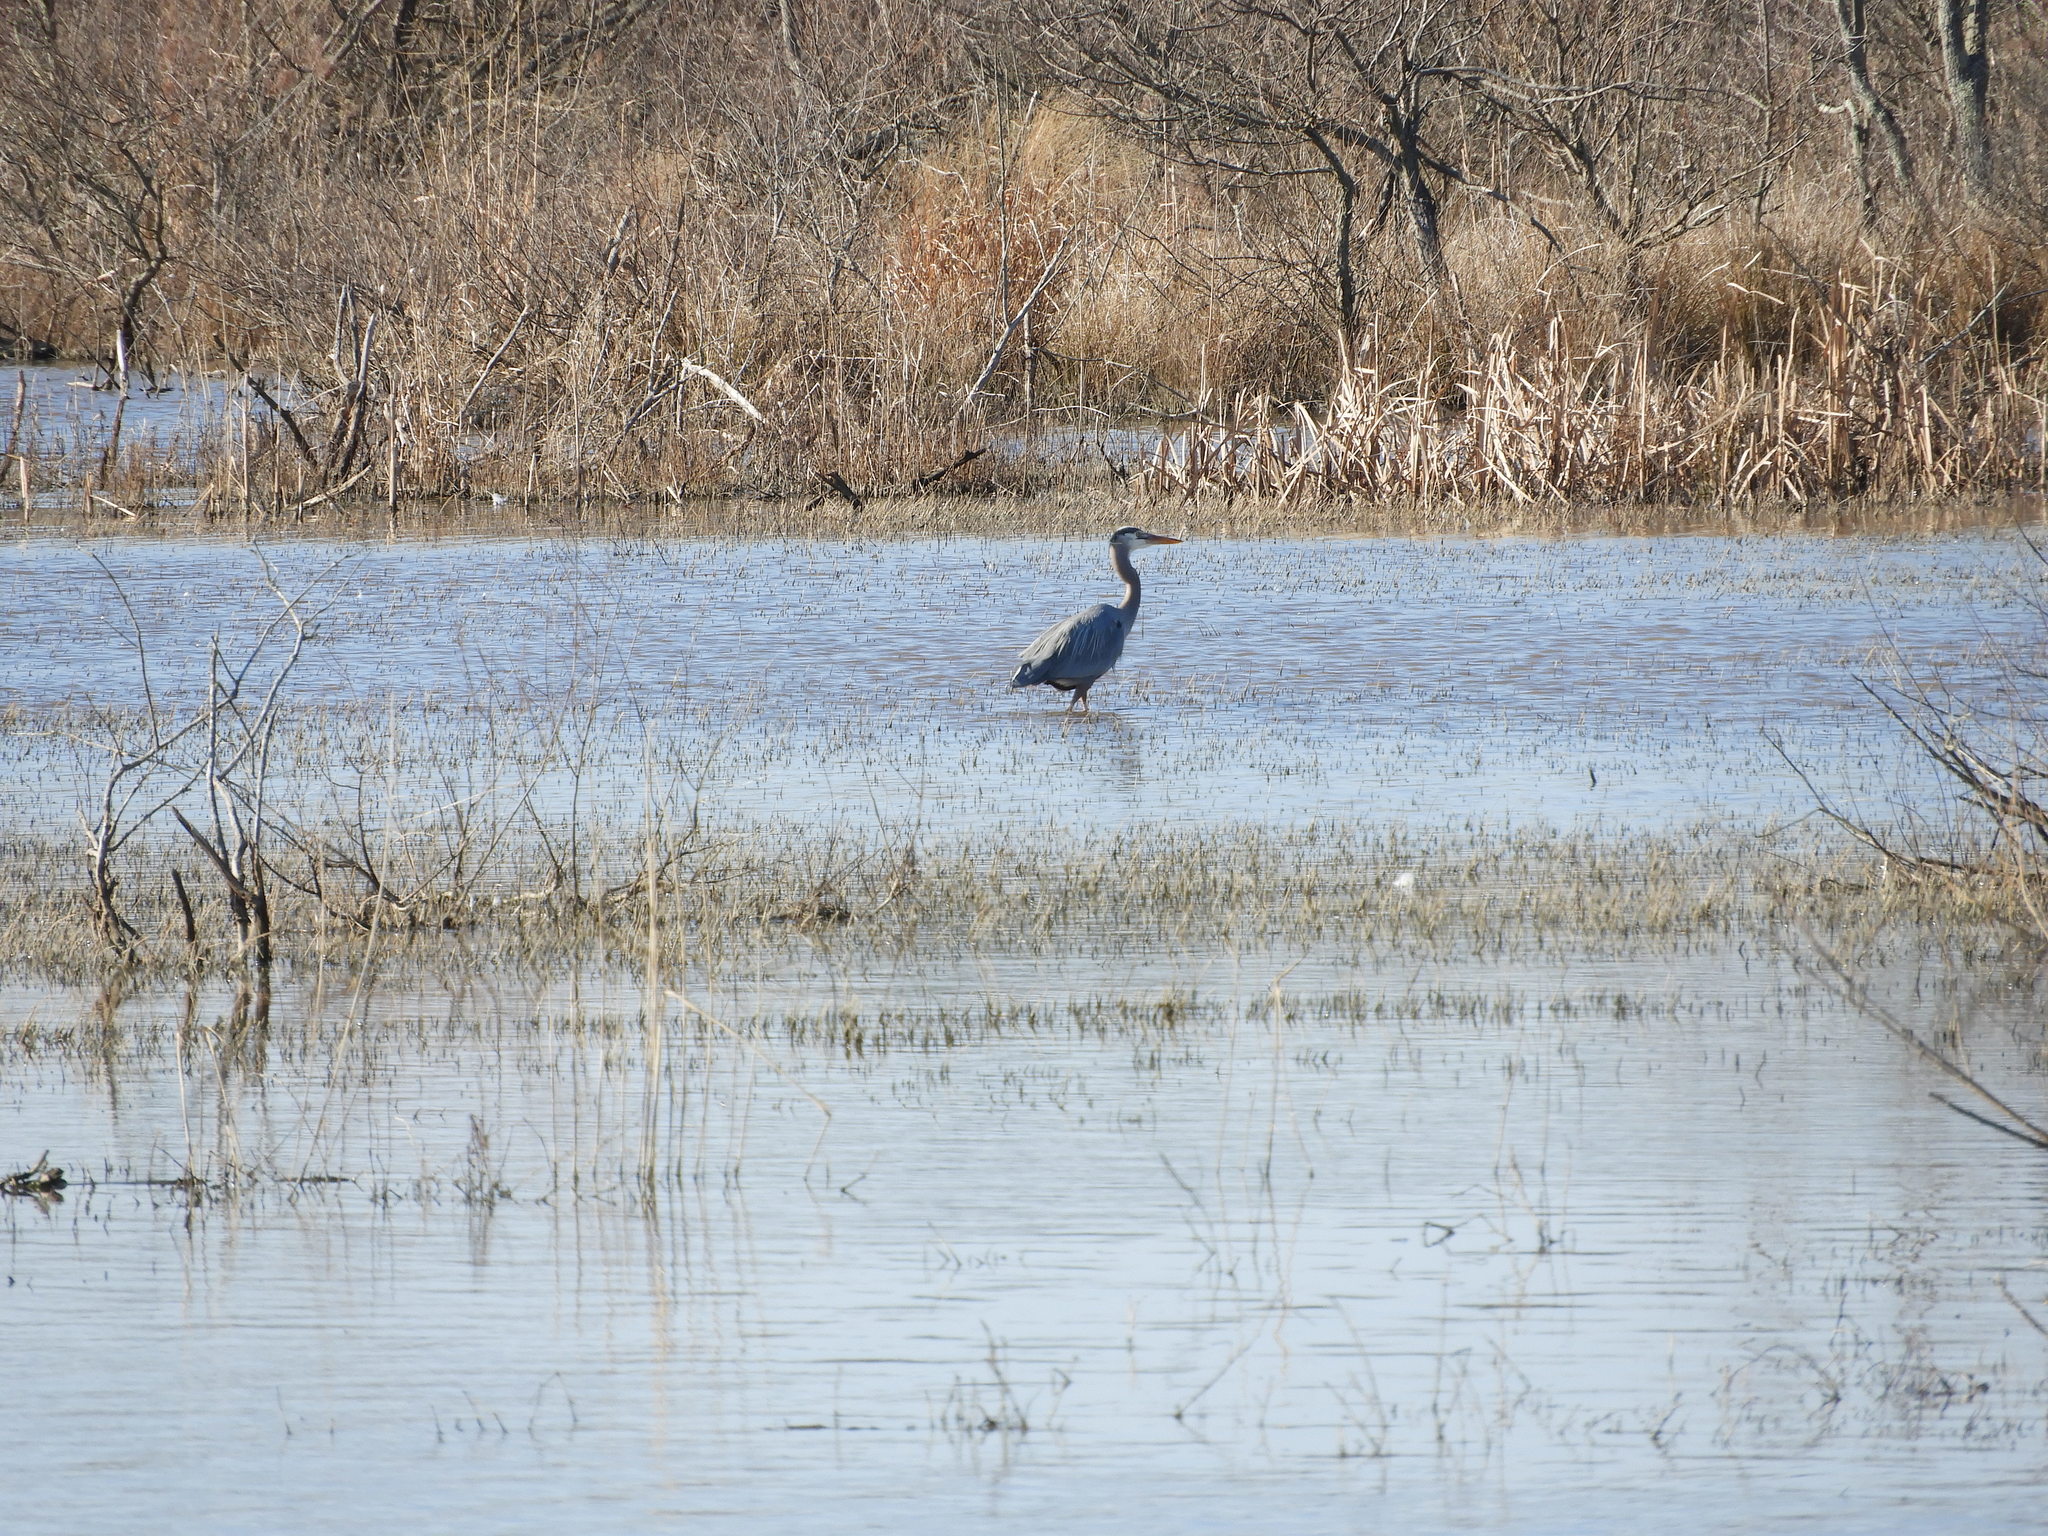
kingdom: Animalia
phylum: Chordata
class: Aves
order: Pelecaniformes
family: Ardeidae
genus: Ardea
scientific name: Ardea herodias
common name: Great blue heron
